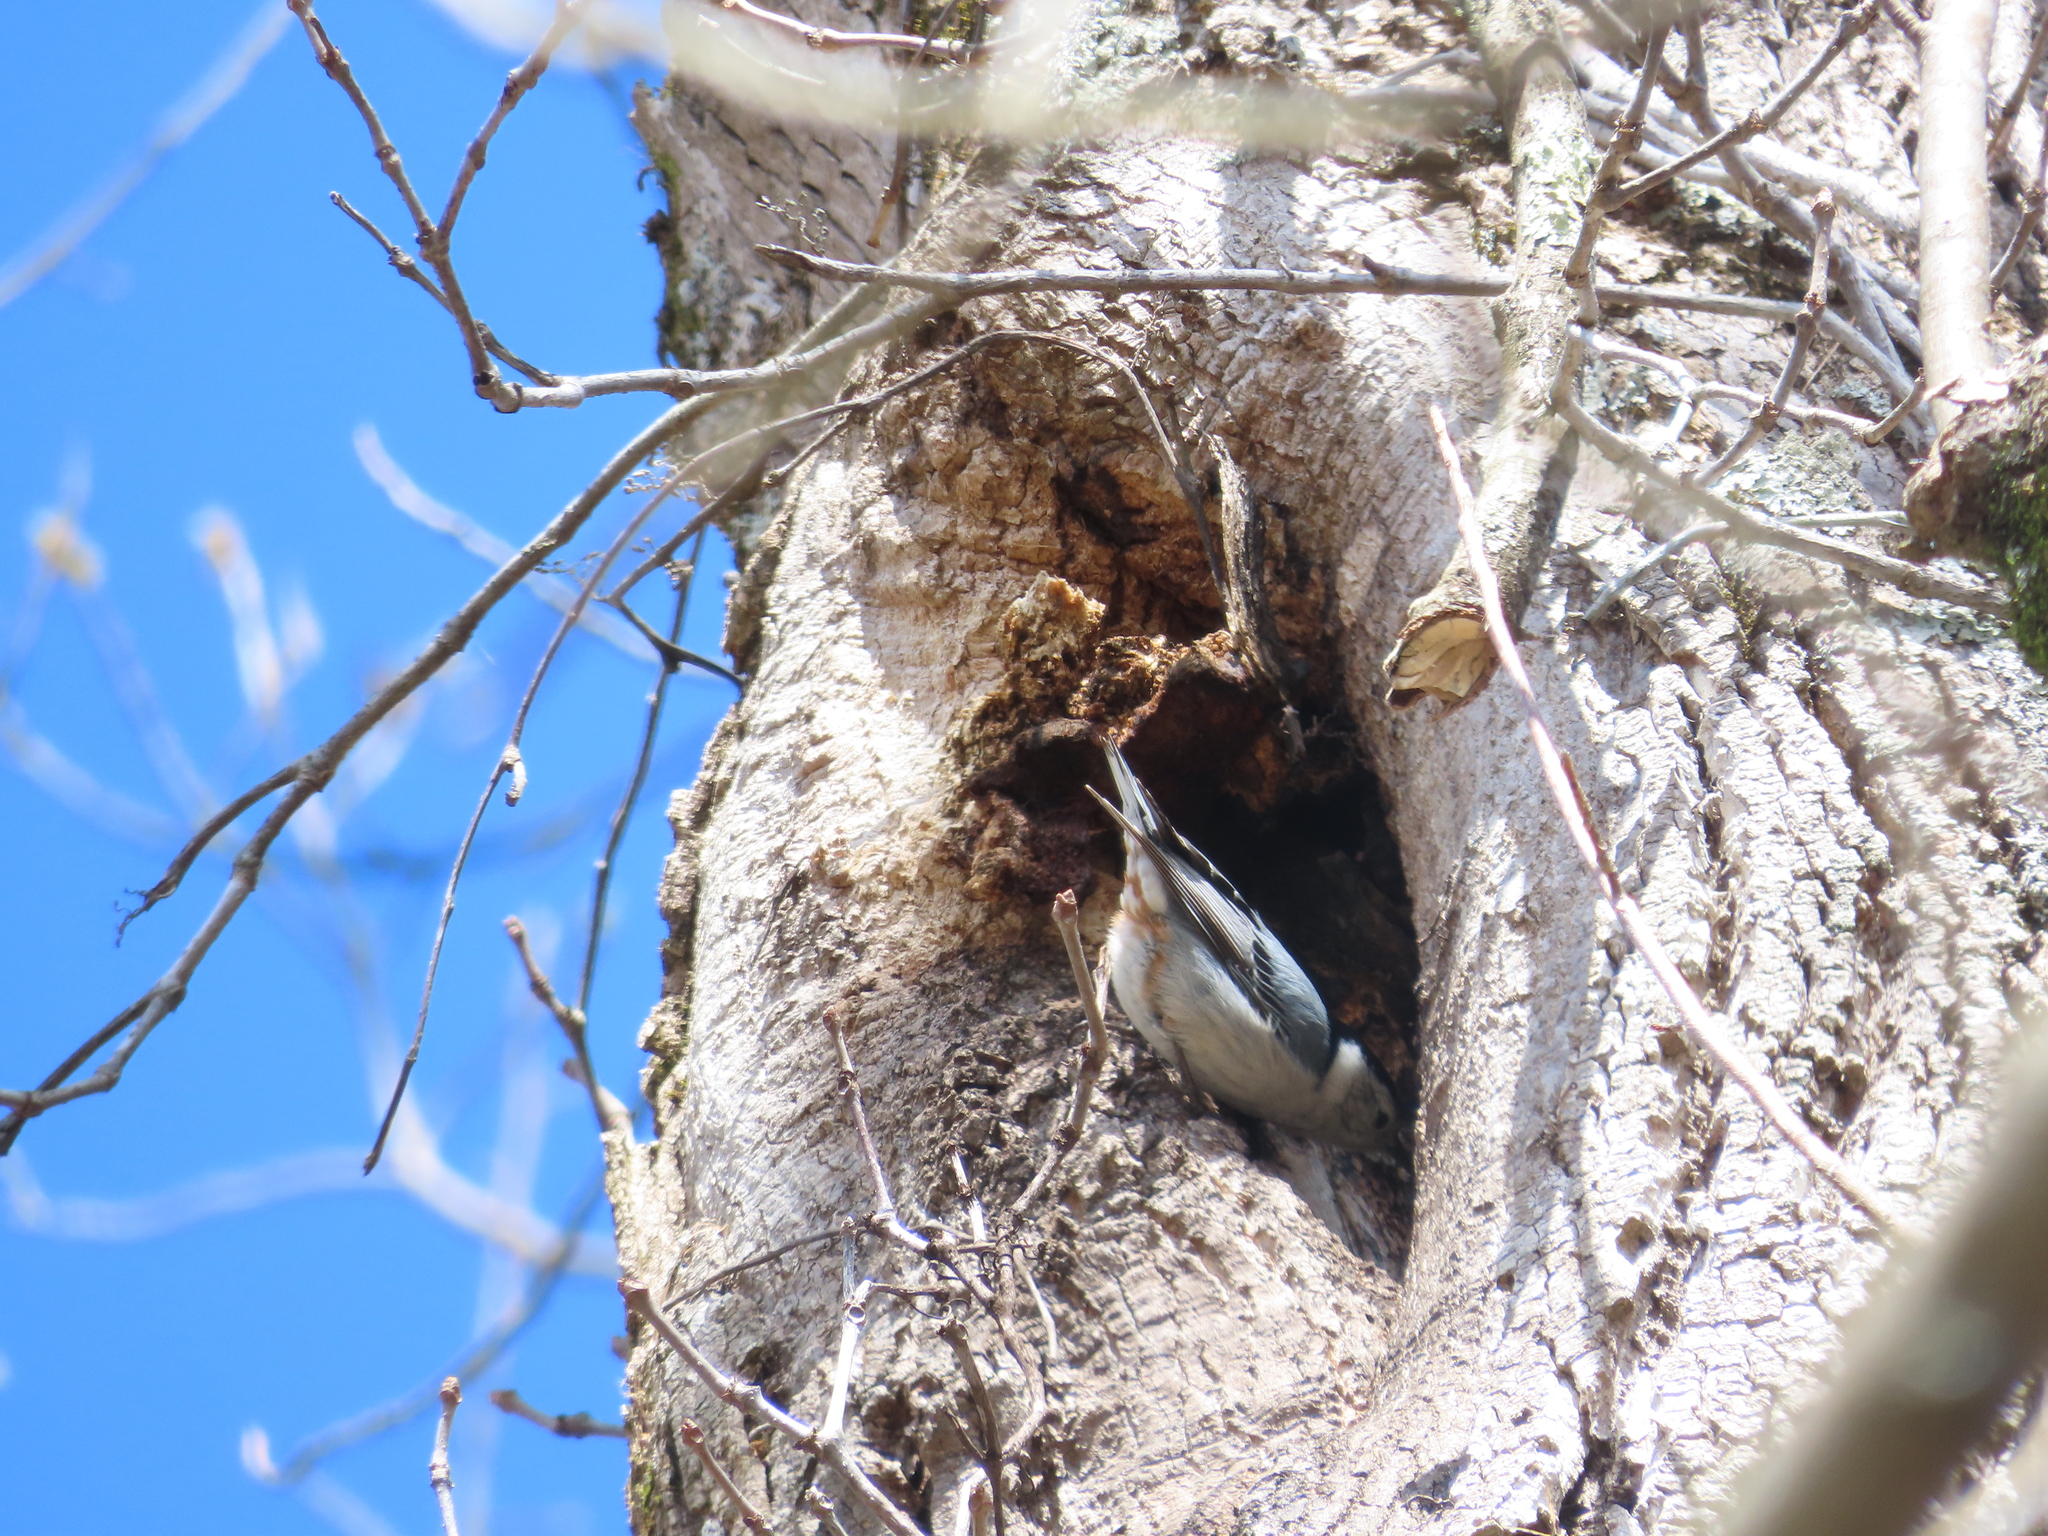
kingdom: Animalia
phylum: Chordata
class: Aves
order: Passeriformes
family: Sittidae
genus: Sitta
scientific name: Sitta carolinensis
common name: White-breasted nuthatch
